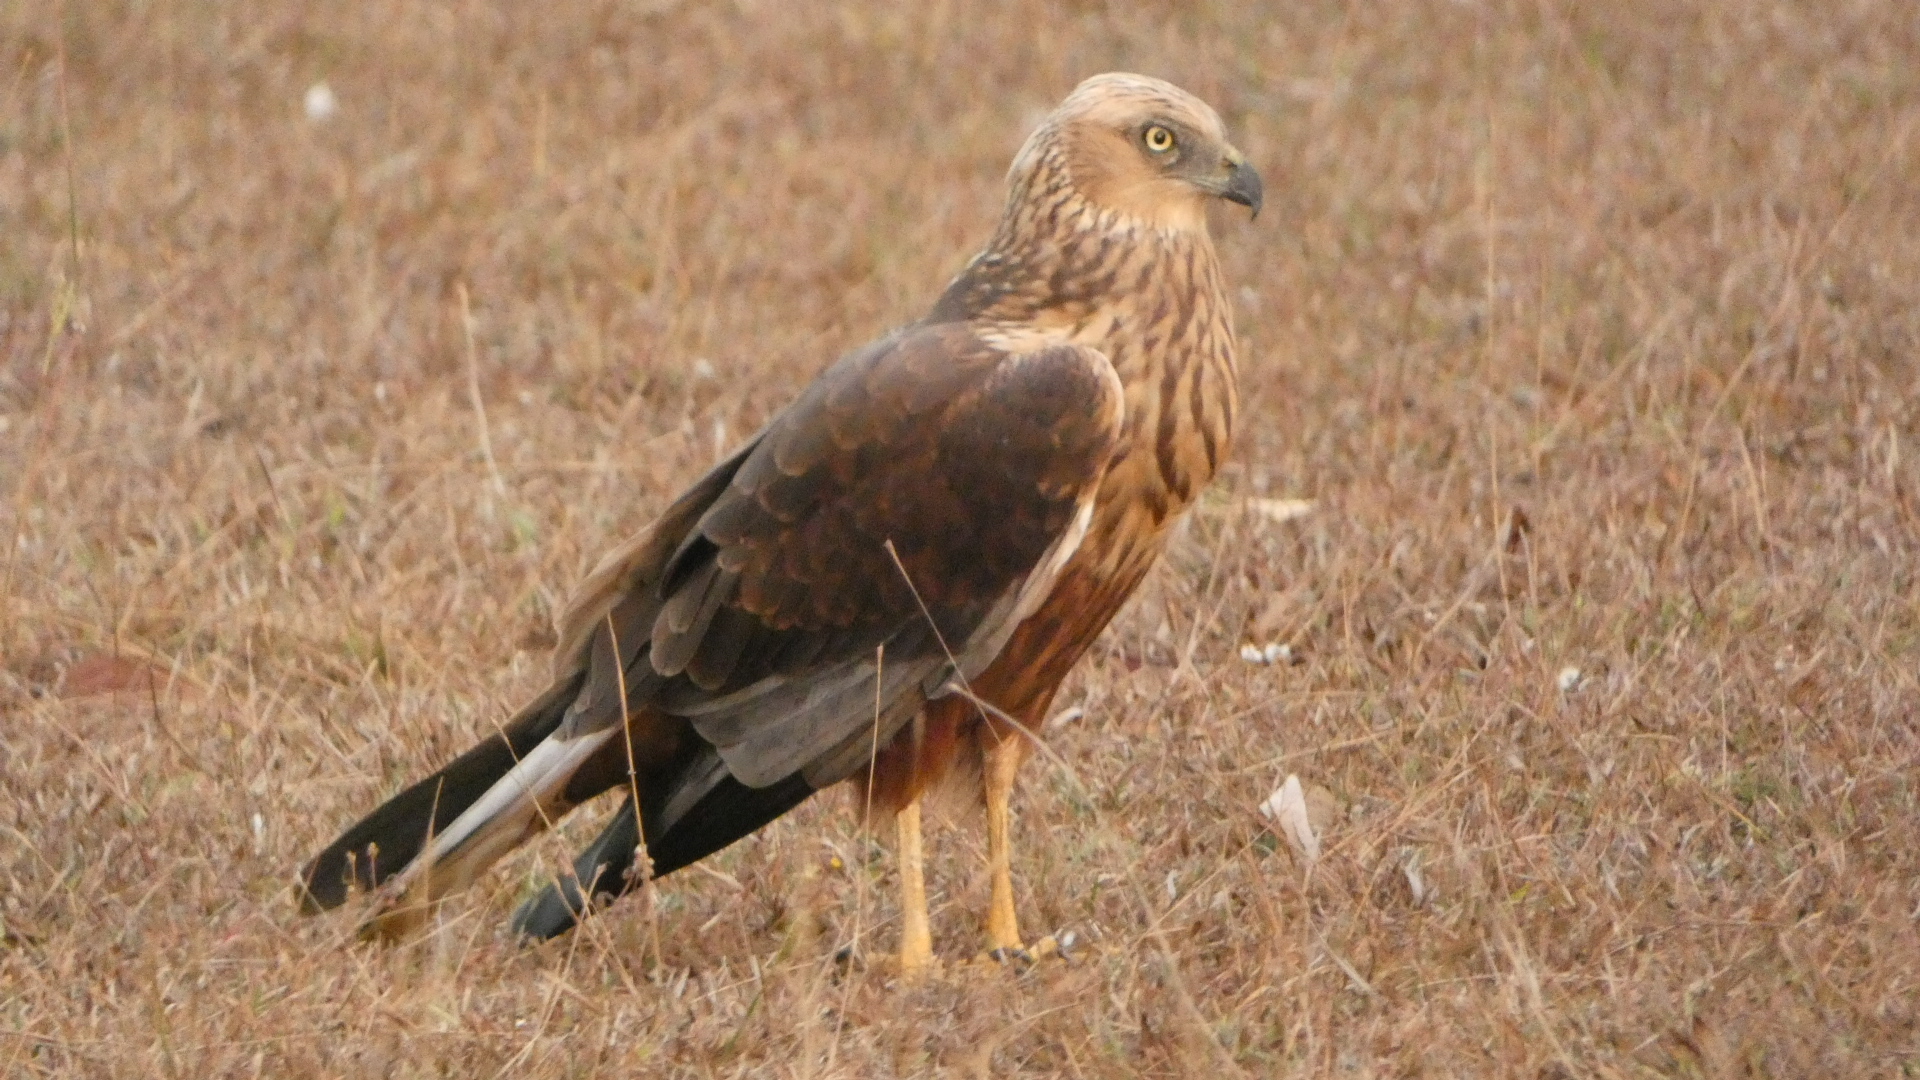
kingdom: Animalia
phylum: Chordata
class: Aves
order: Accipitriformes
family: Accipitridae
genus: Circus
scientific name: Circus aeruginosus
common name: Western marsh harrier
